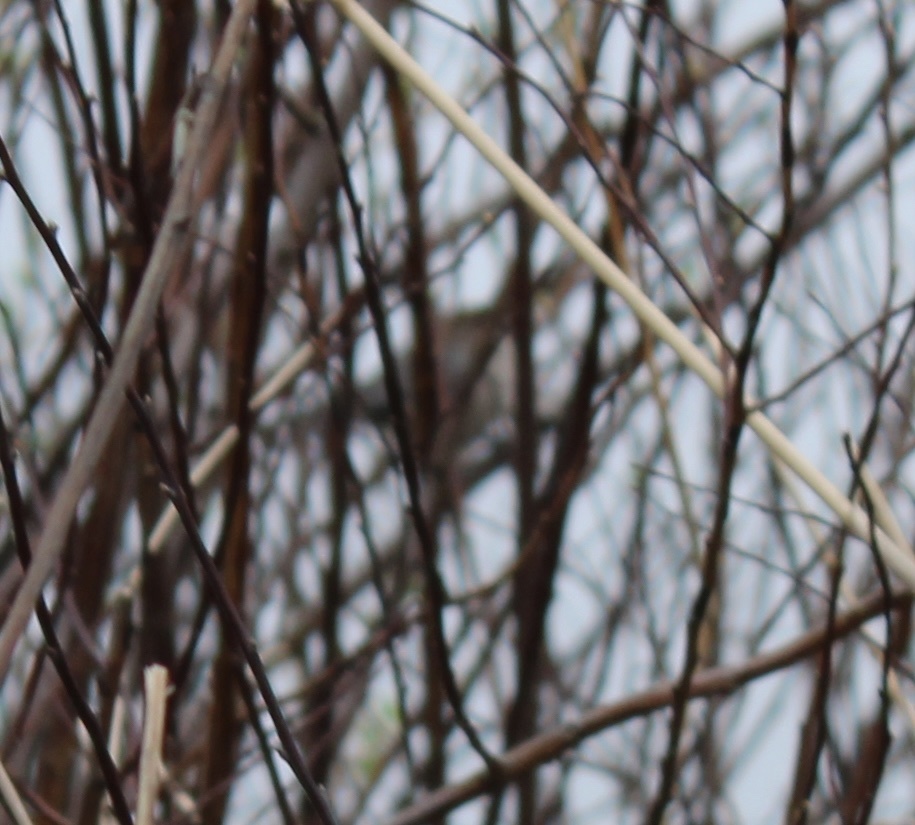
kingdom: Animalia
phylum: Chordata
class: Aves
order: Passeriformes
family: Aegithalidae
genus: Psaltriparus
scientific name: Psaltriparus minimus
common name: American bushtit
